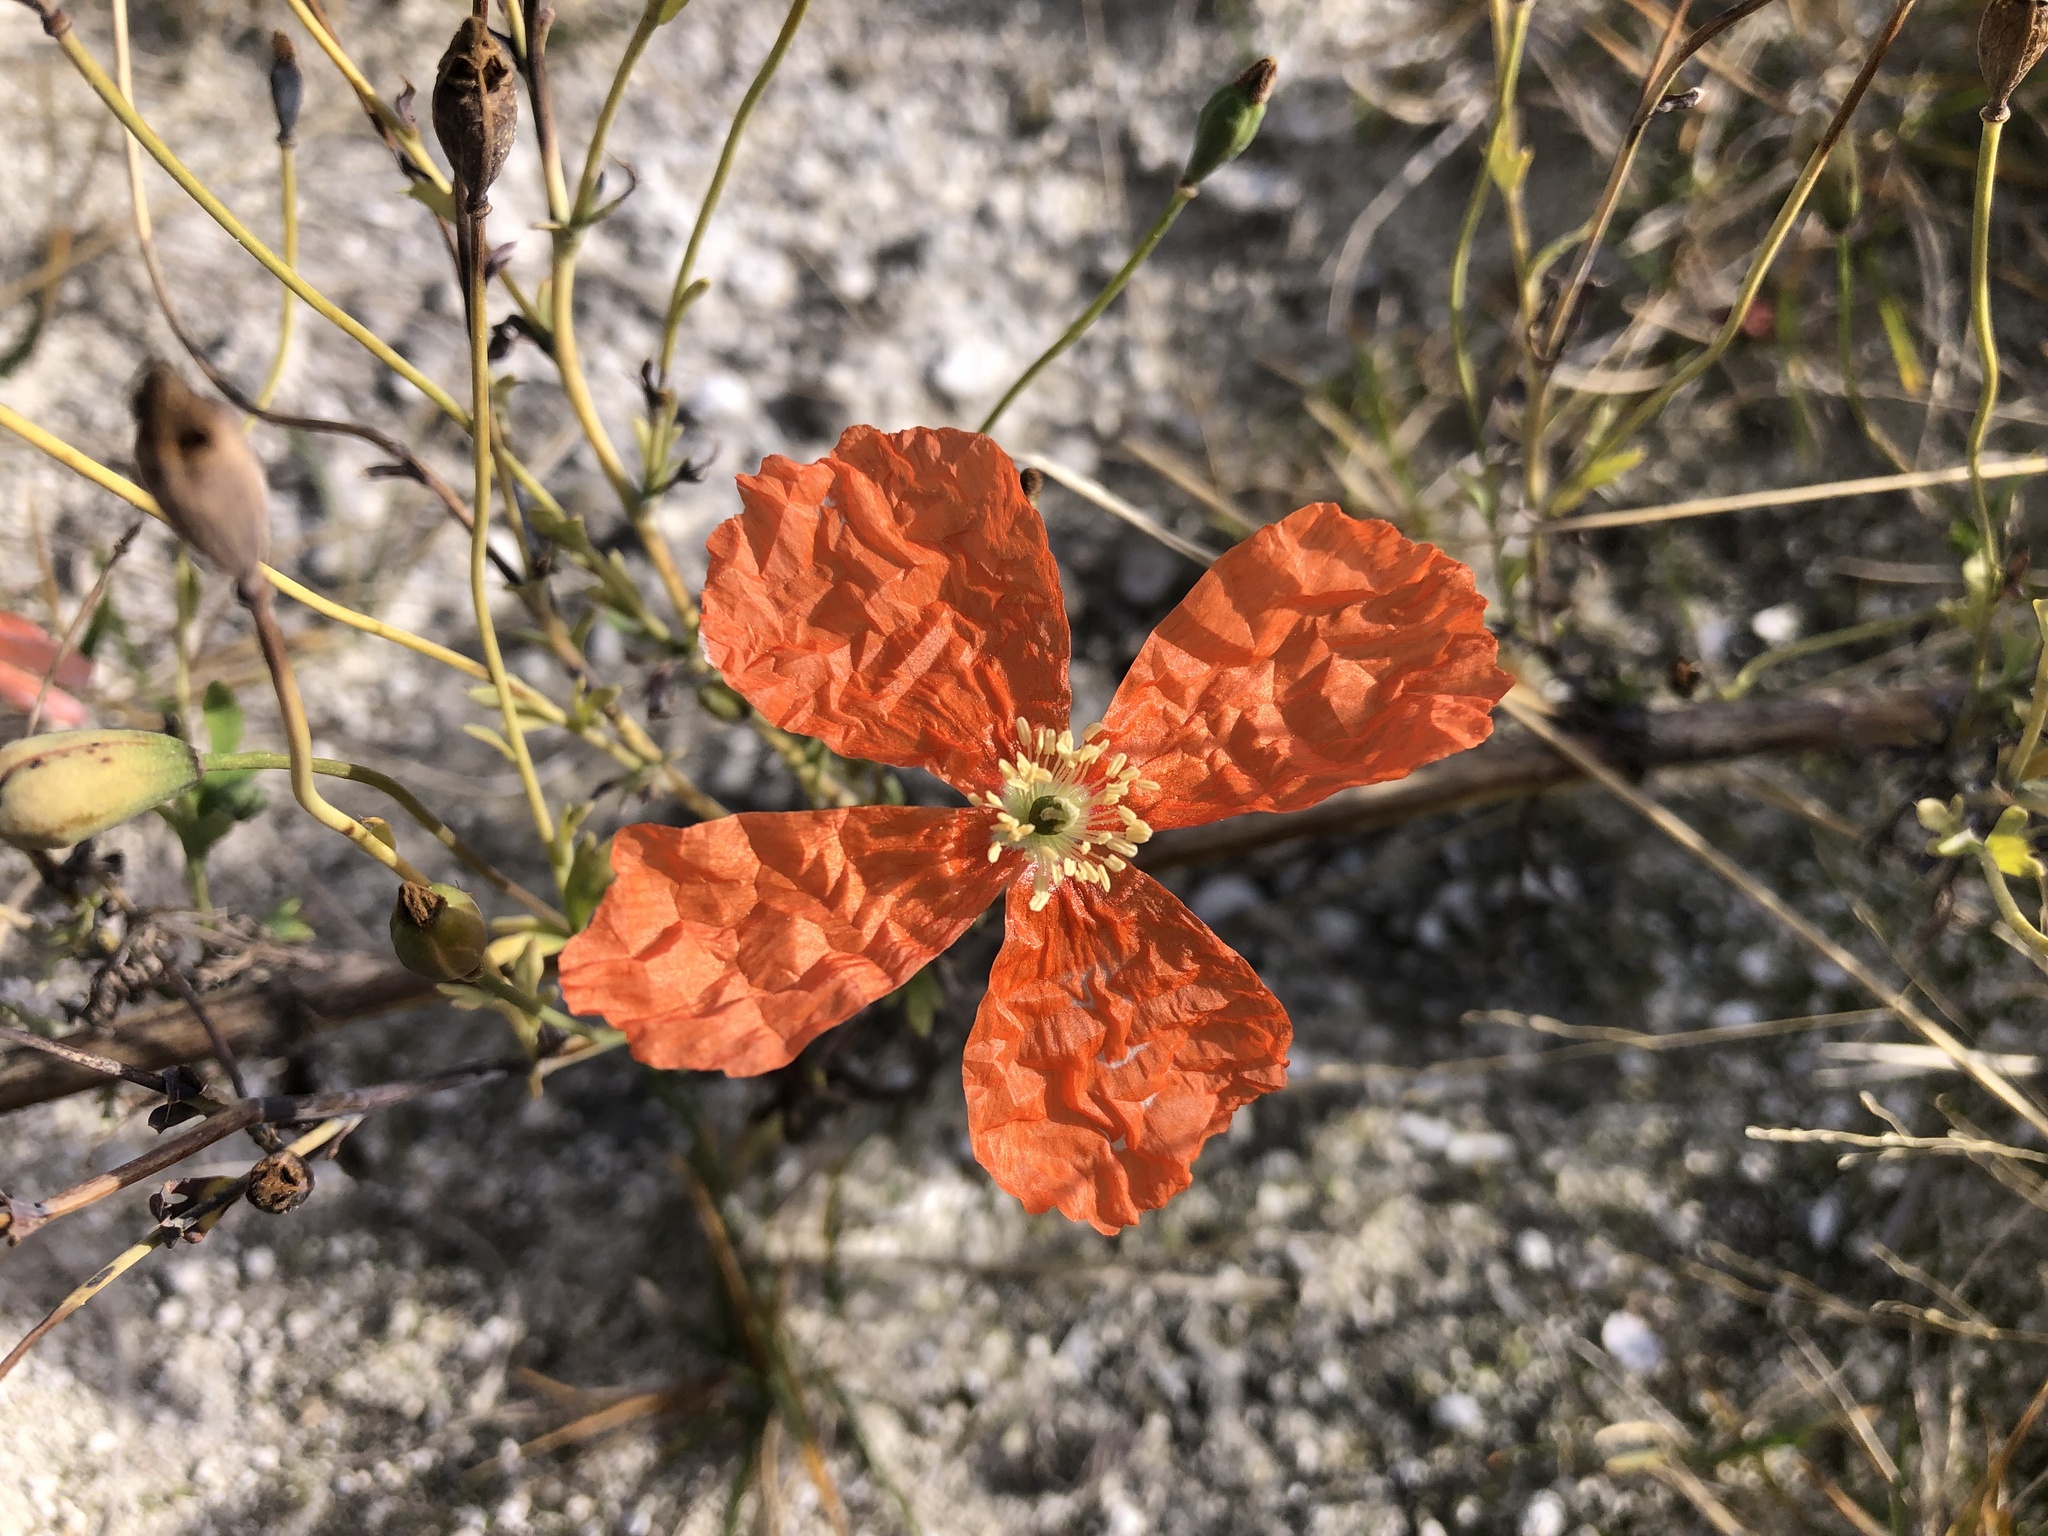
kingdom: Plantae
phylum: Tracheophyta
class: Magnoliopsida
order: Ranunculales
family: Papaveraceae
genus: Papaver
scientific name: Papaver armeniacum
